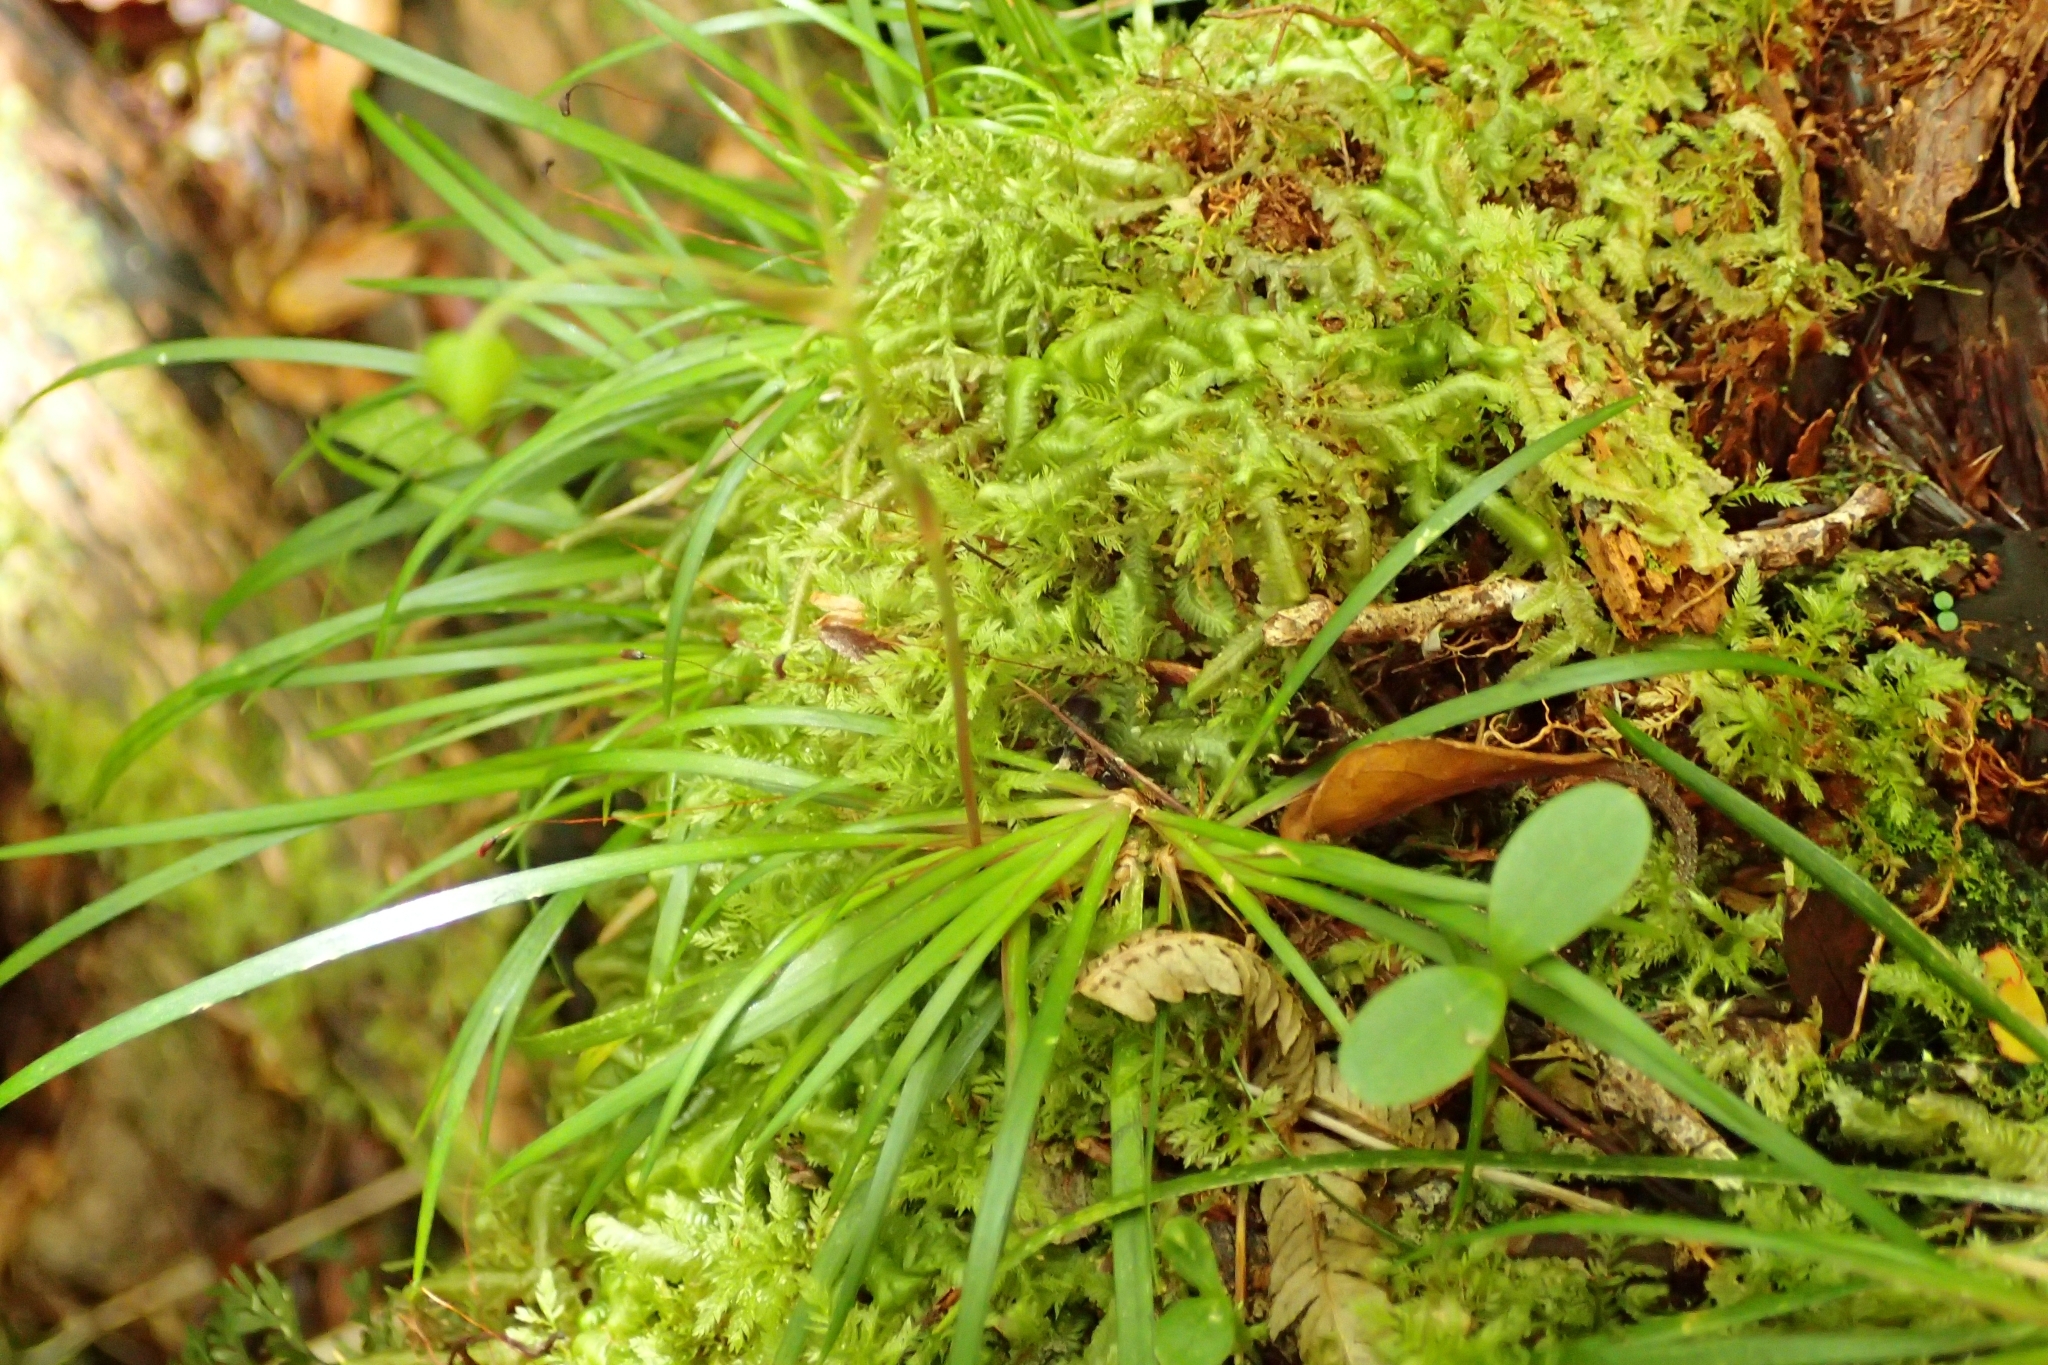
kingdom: Plantae
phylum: Tracheophyta
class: Liliopsida
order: Asparagales
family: Iridaceae
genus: Libertia
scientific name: Libertia micrantha
